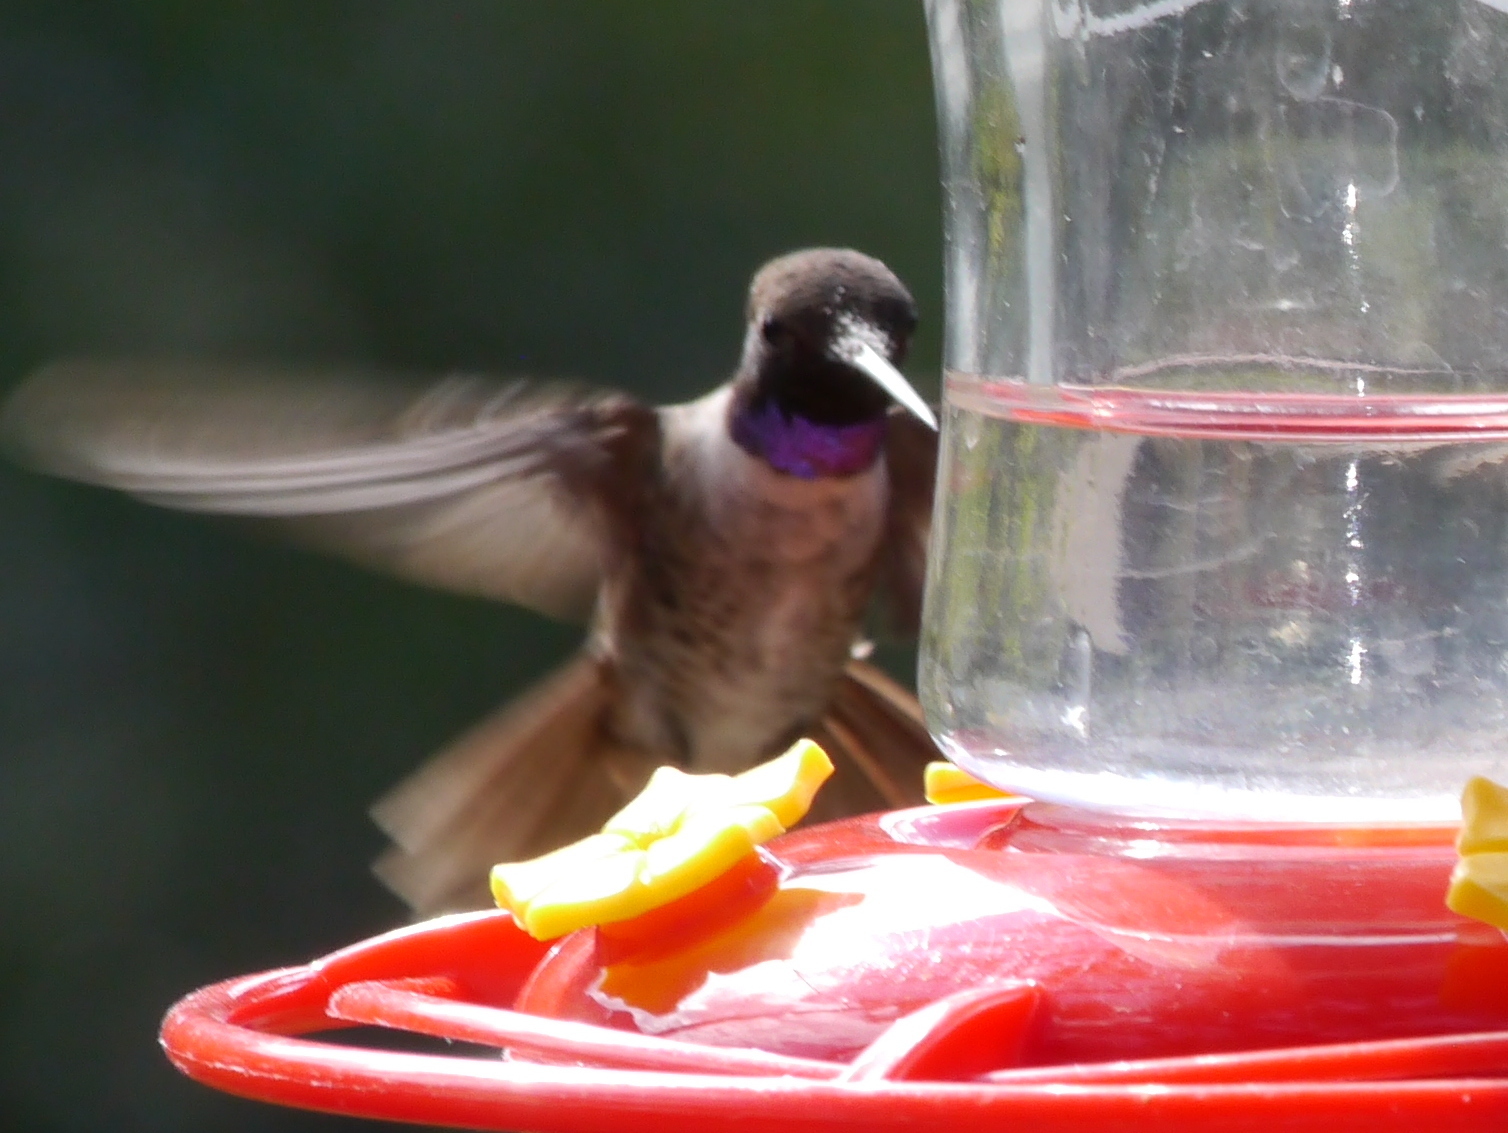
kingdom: Animalia
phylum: Chordata
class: Aves
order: Apodiformes
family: Trochilidae
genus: Archilochus
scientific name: Archilochus alexandri
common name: Black-chinned hummingbird
